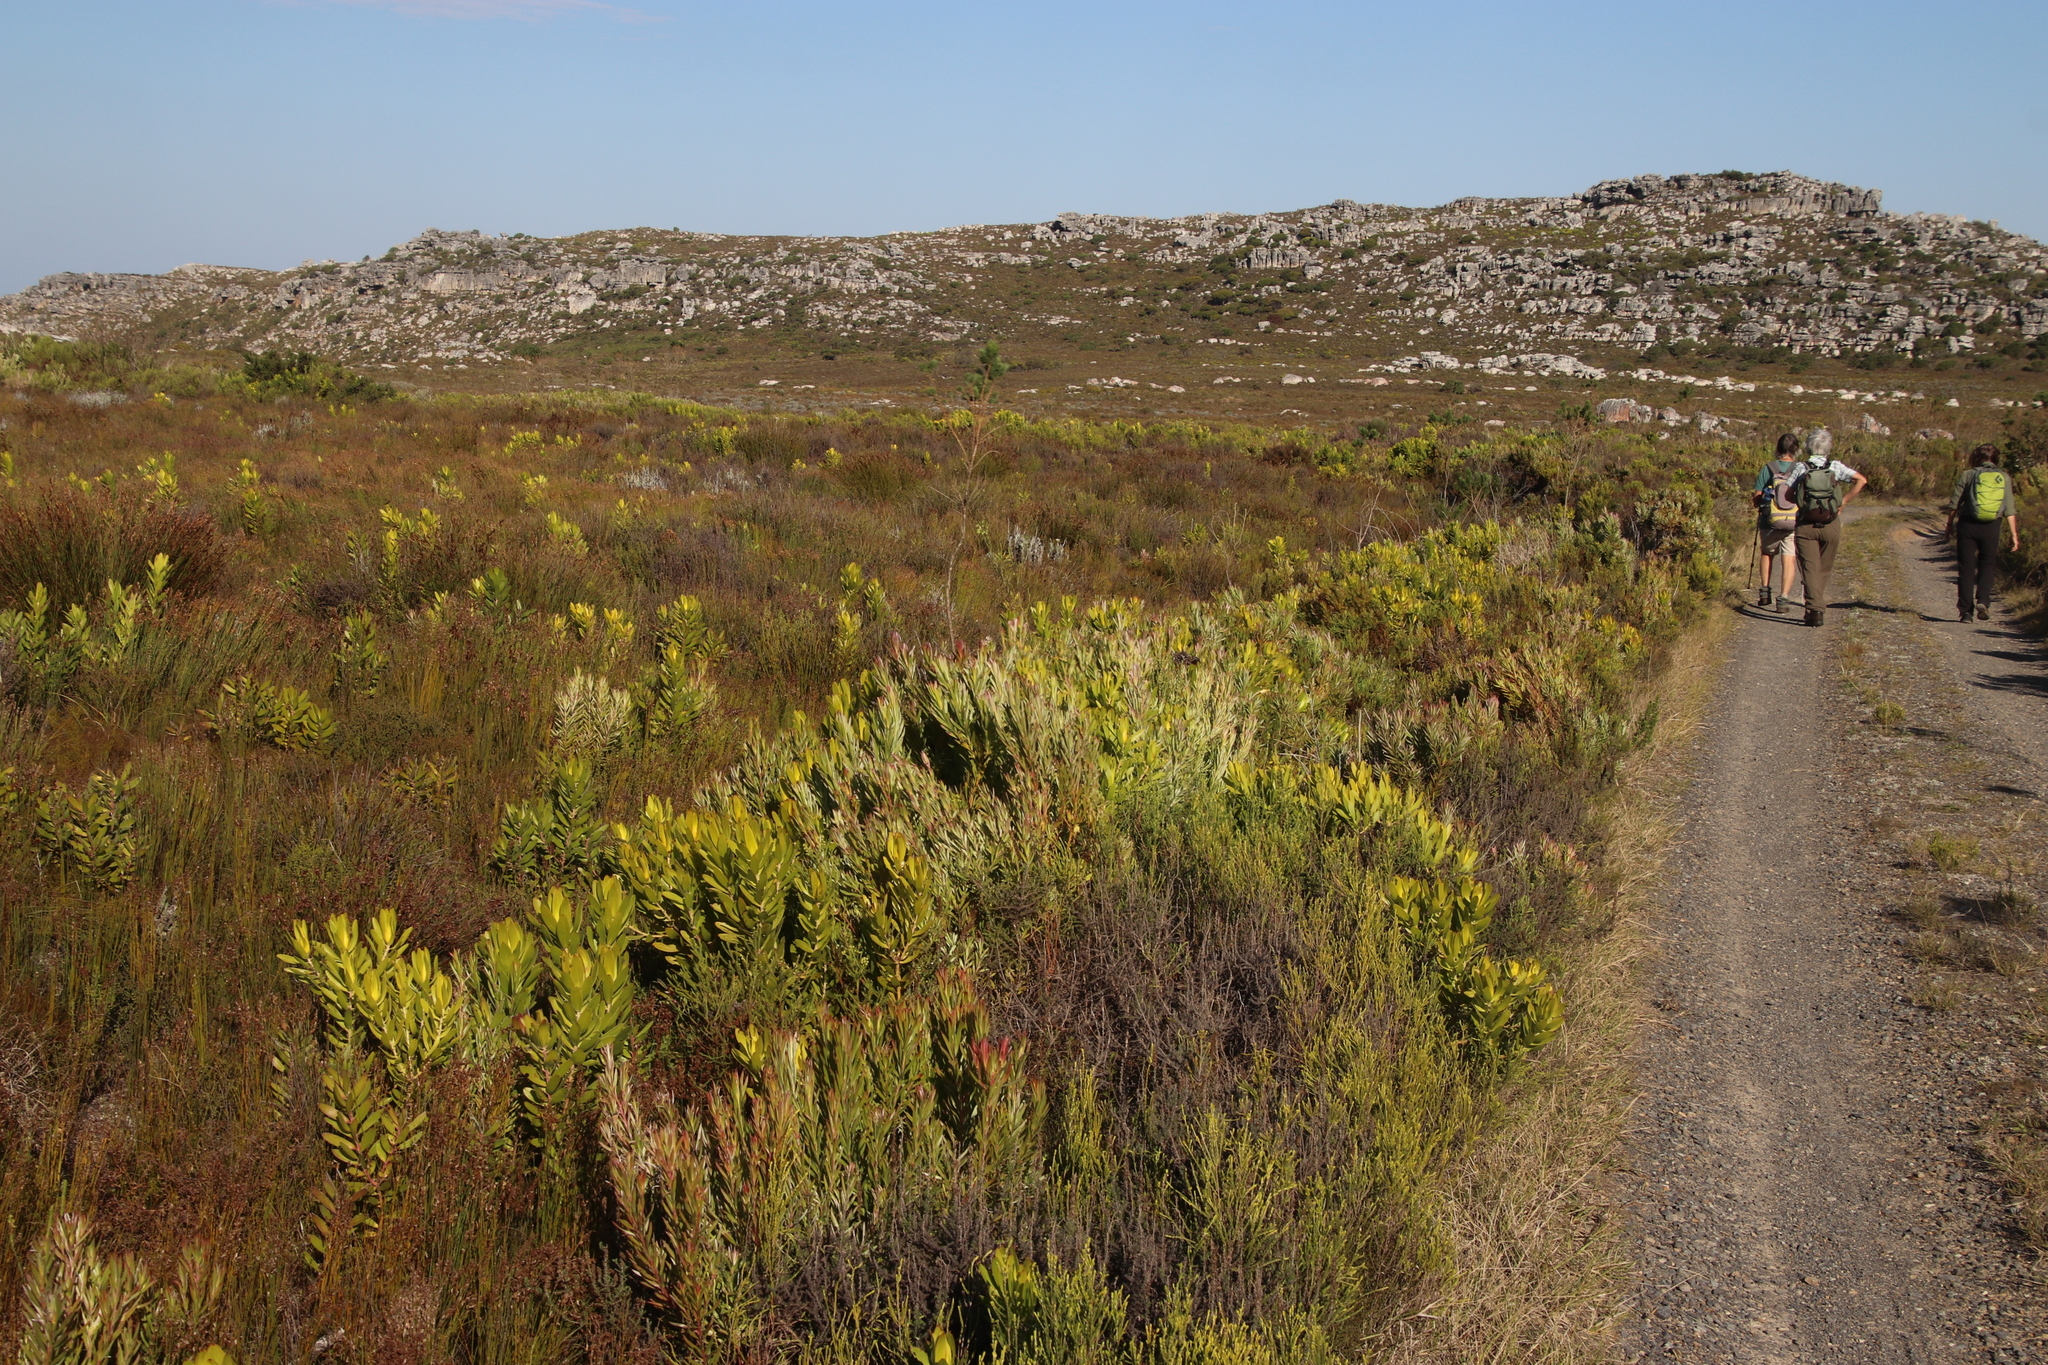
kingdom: Plantae
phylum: Tracheophyta
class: Magnoliopsida
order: Proteales
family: Proteaceae
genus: Leucadendron
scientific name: Leucadendron xanthoconus
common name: Sickle-leaf conebush
